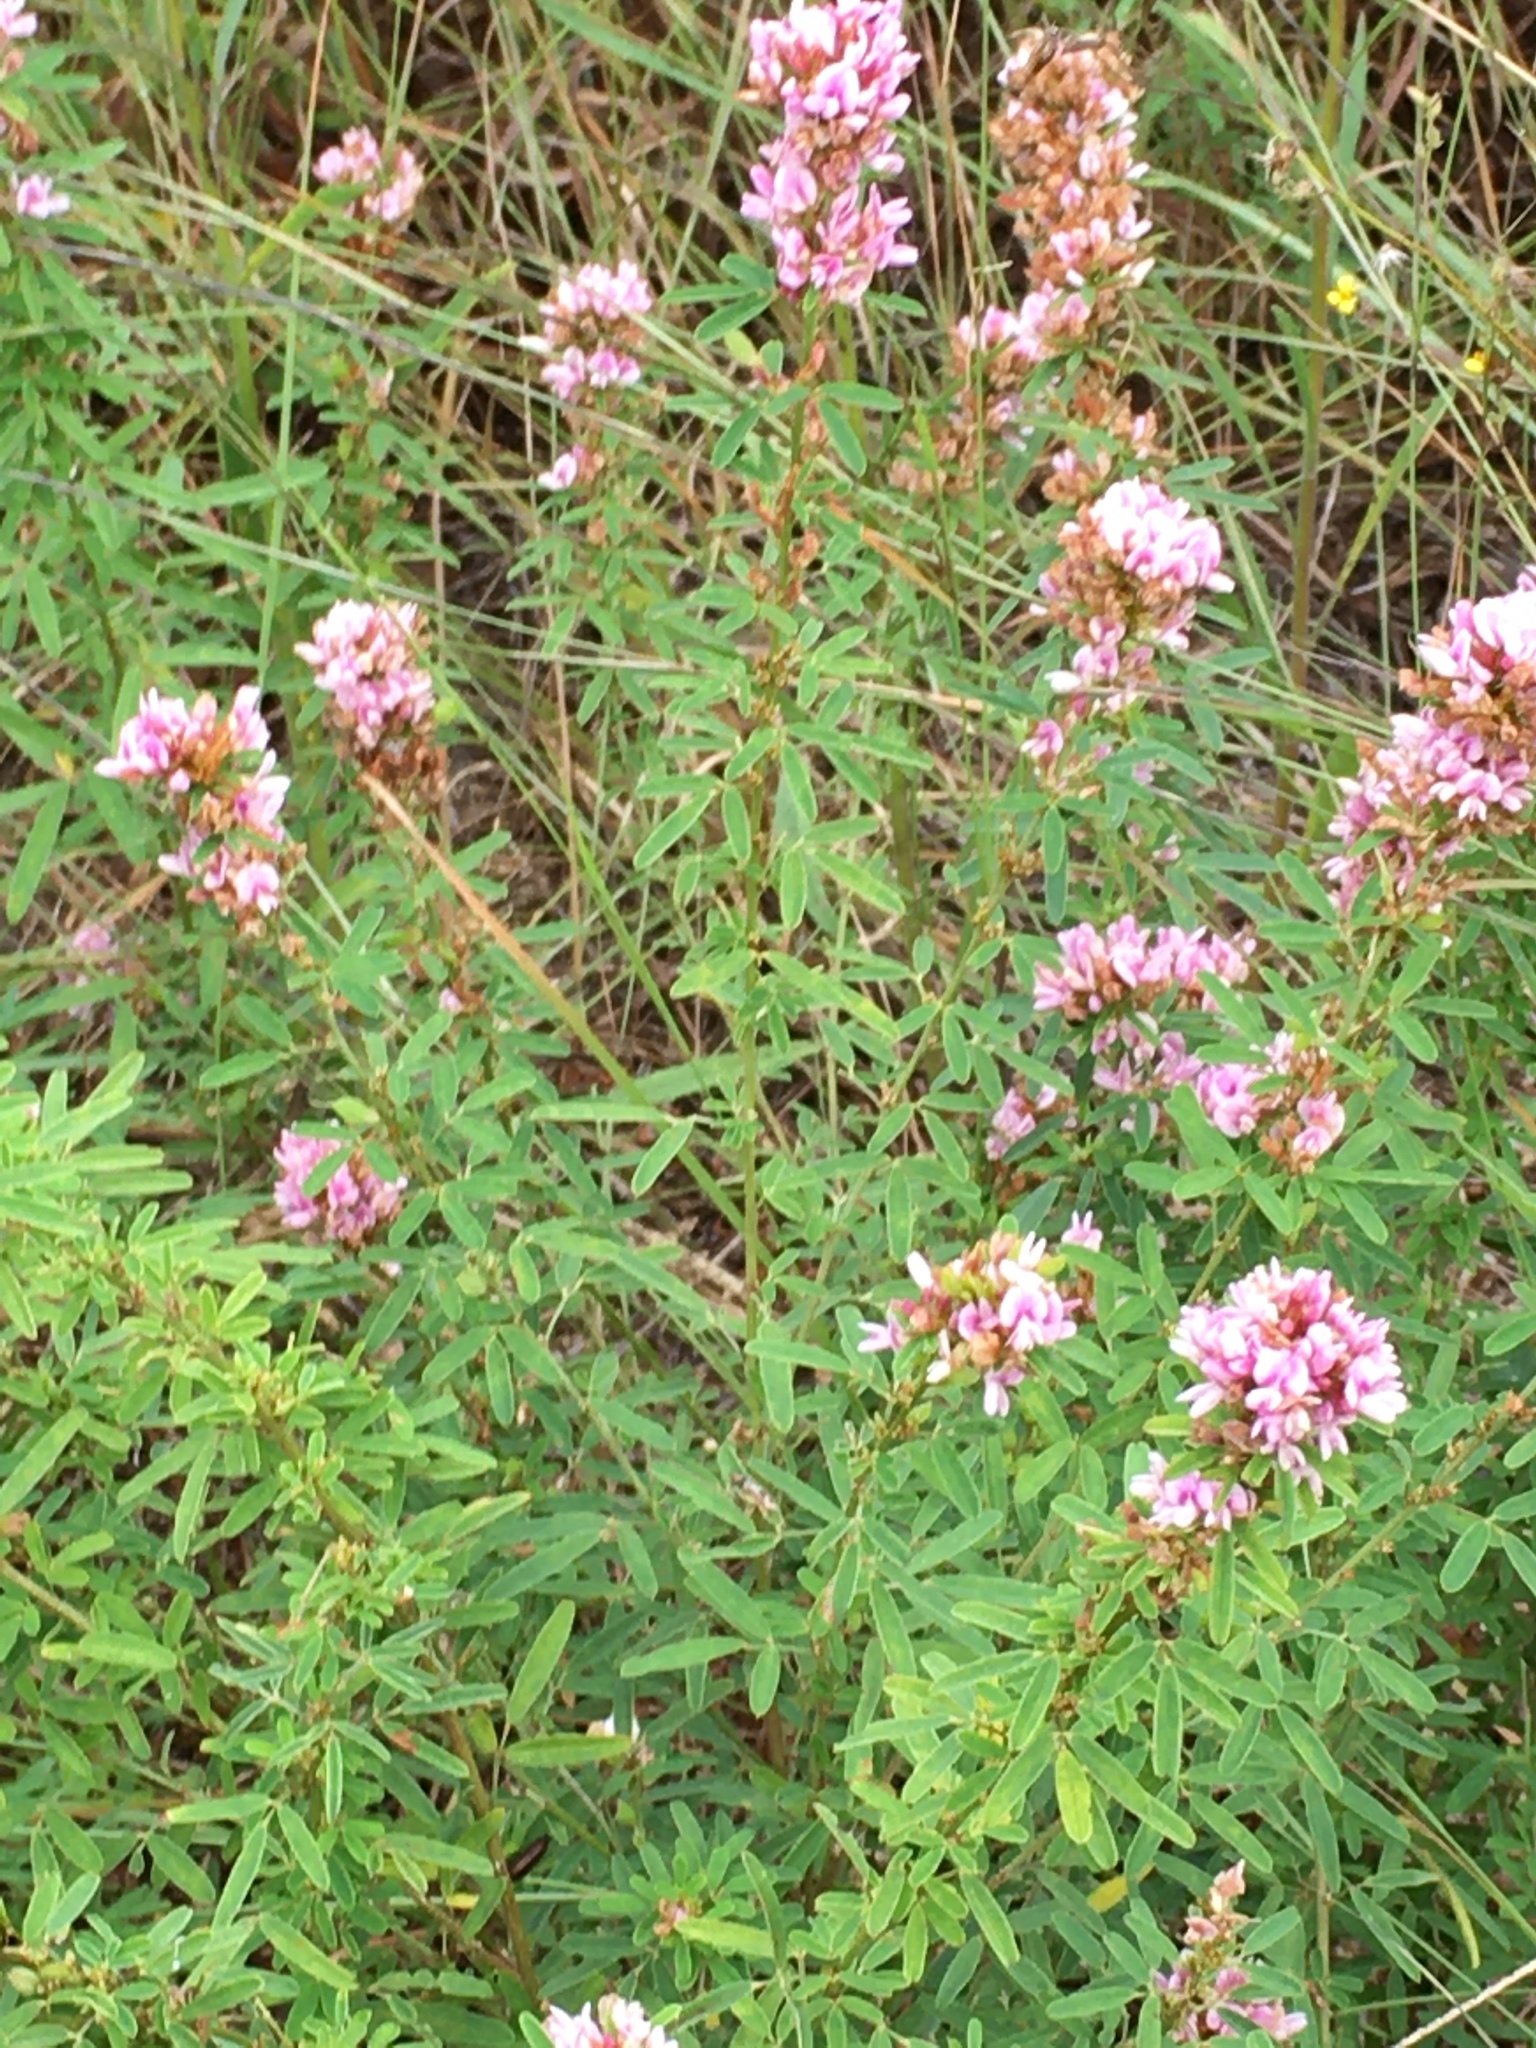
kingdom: Plantae
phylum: Tracheophyta
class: Magnoliopsida
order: Fabales
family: Fabaceae
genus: Lespedeza
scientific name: Lespedeza virginica
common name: Slender bush-clover
